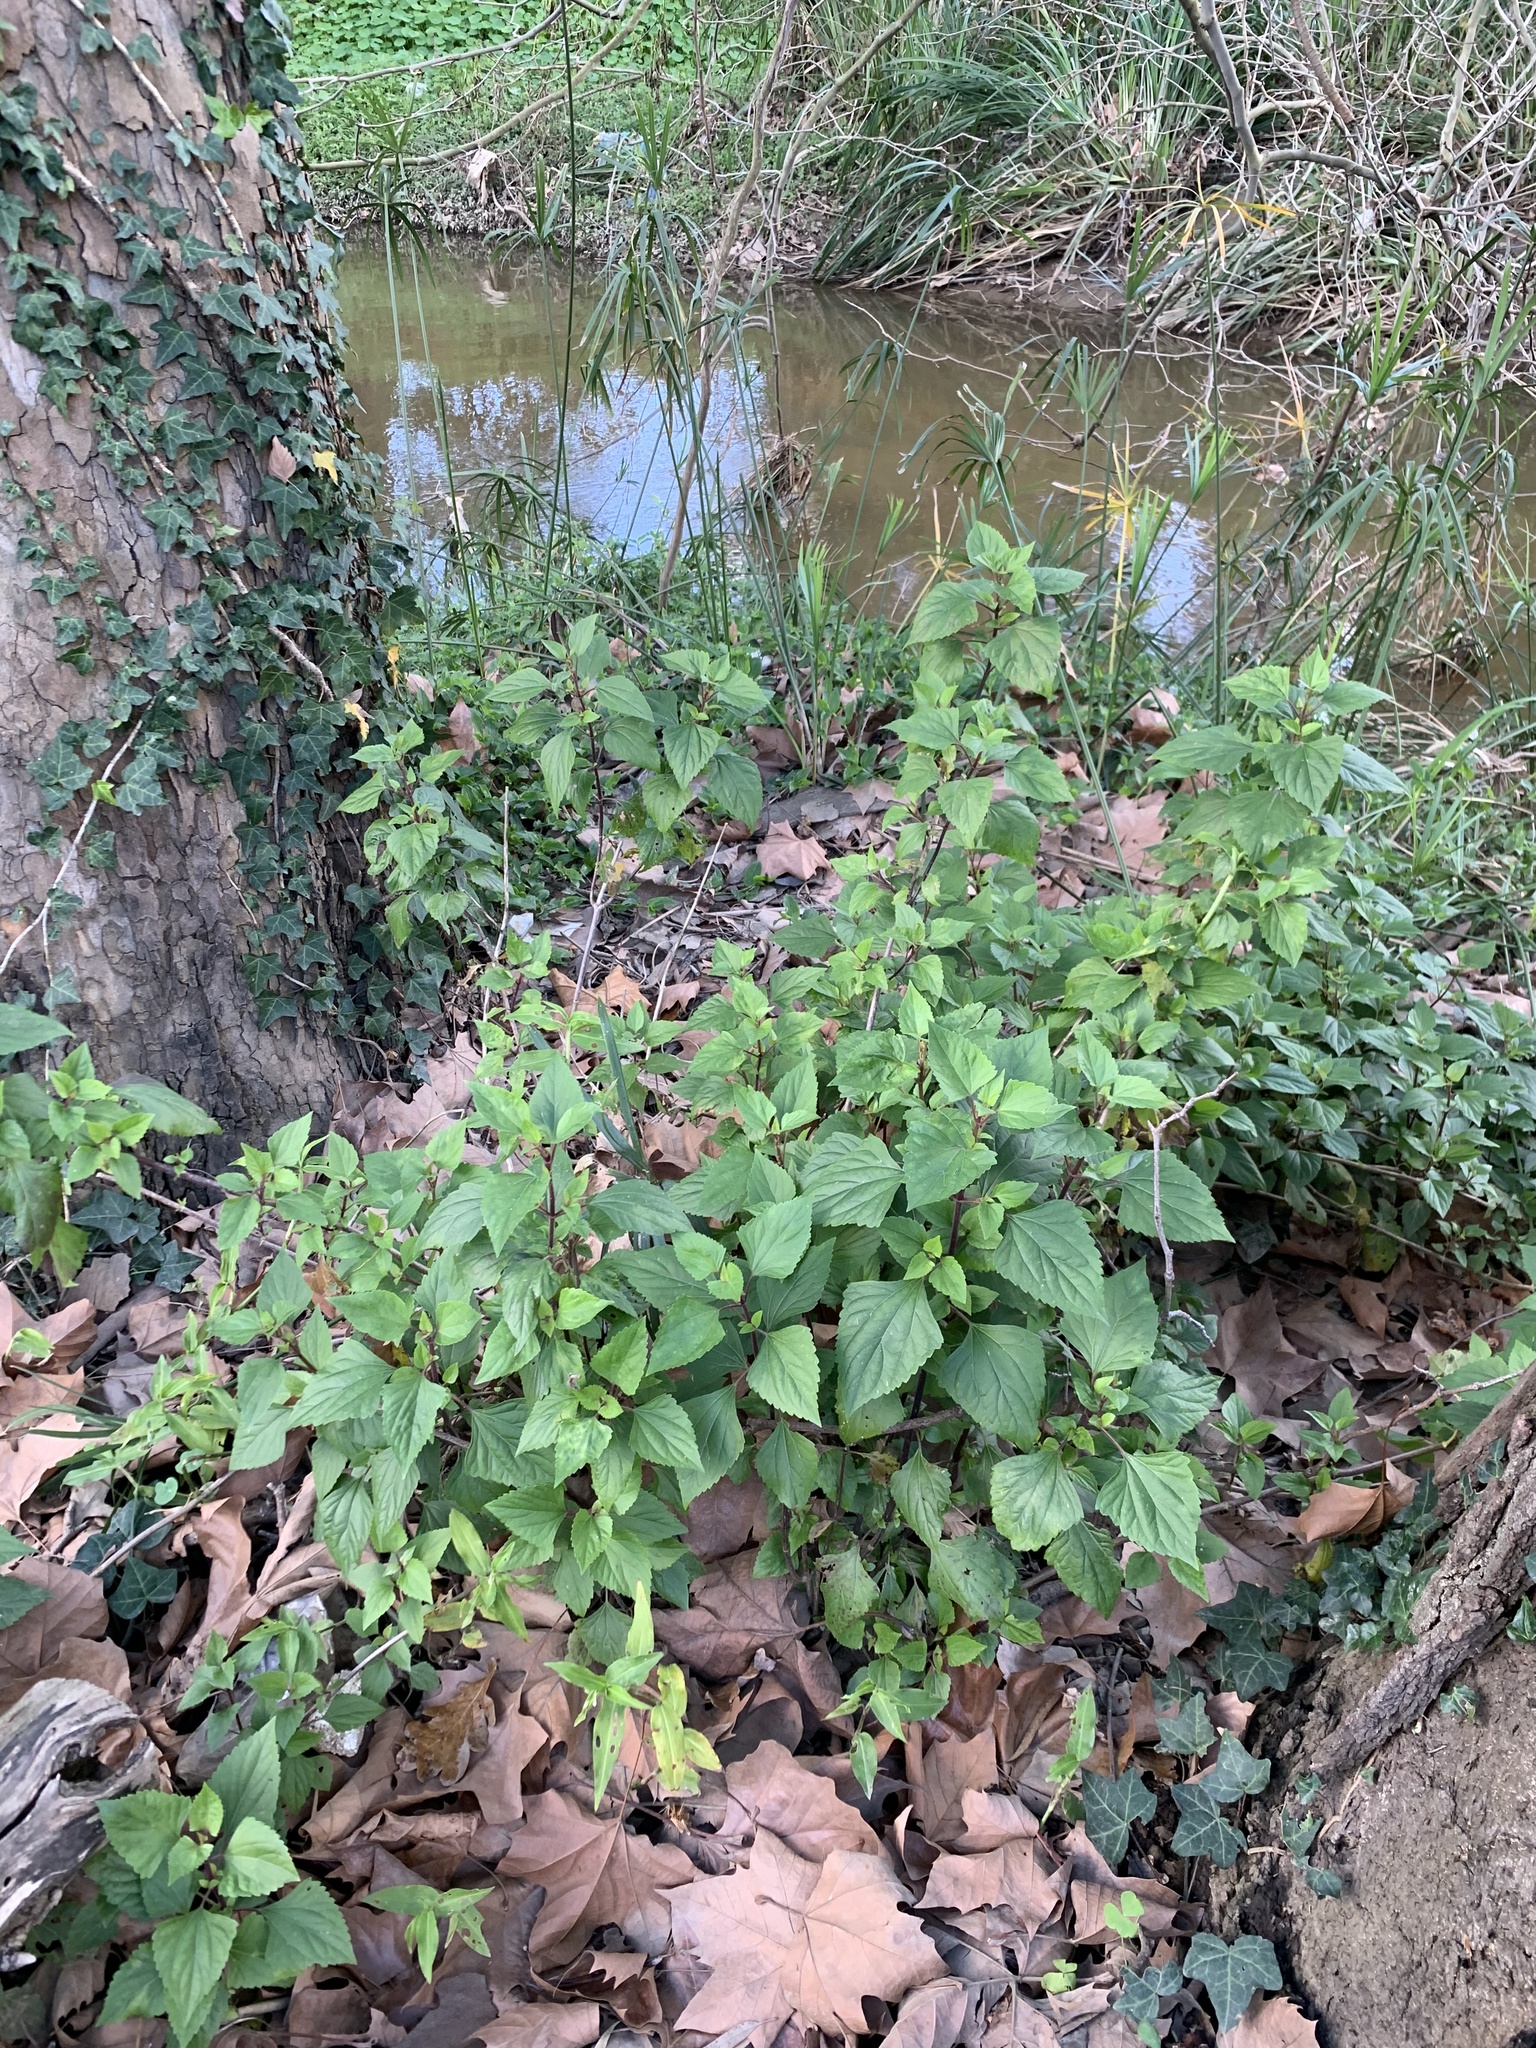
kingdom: Plantae
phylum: Tracheophyta
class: Magnoliopsida
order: Asterales
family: Asteraceae
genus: Ageratina
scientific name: Ageratina adenophora
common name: Sticky snakeroot
